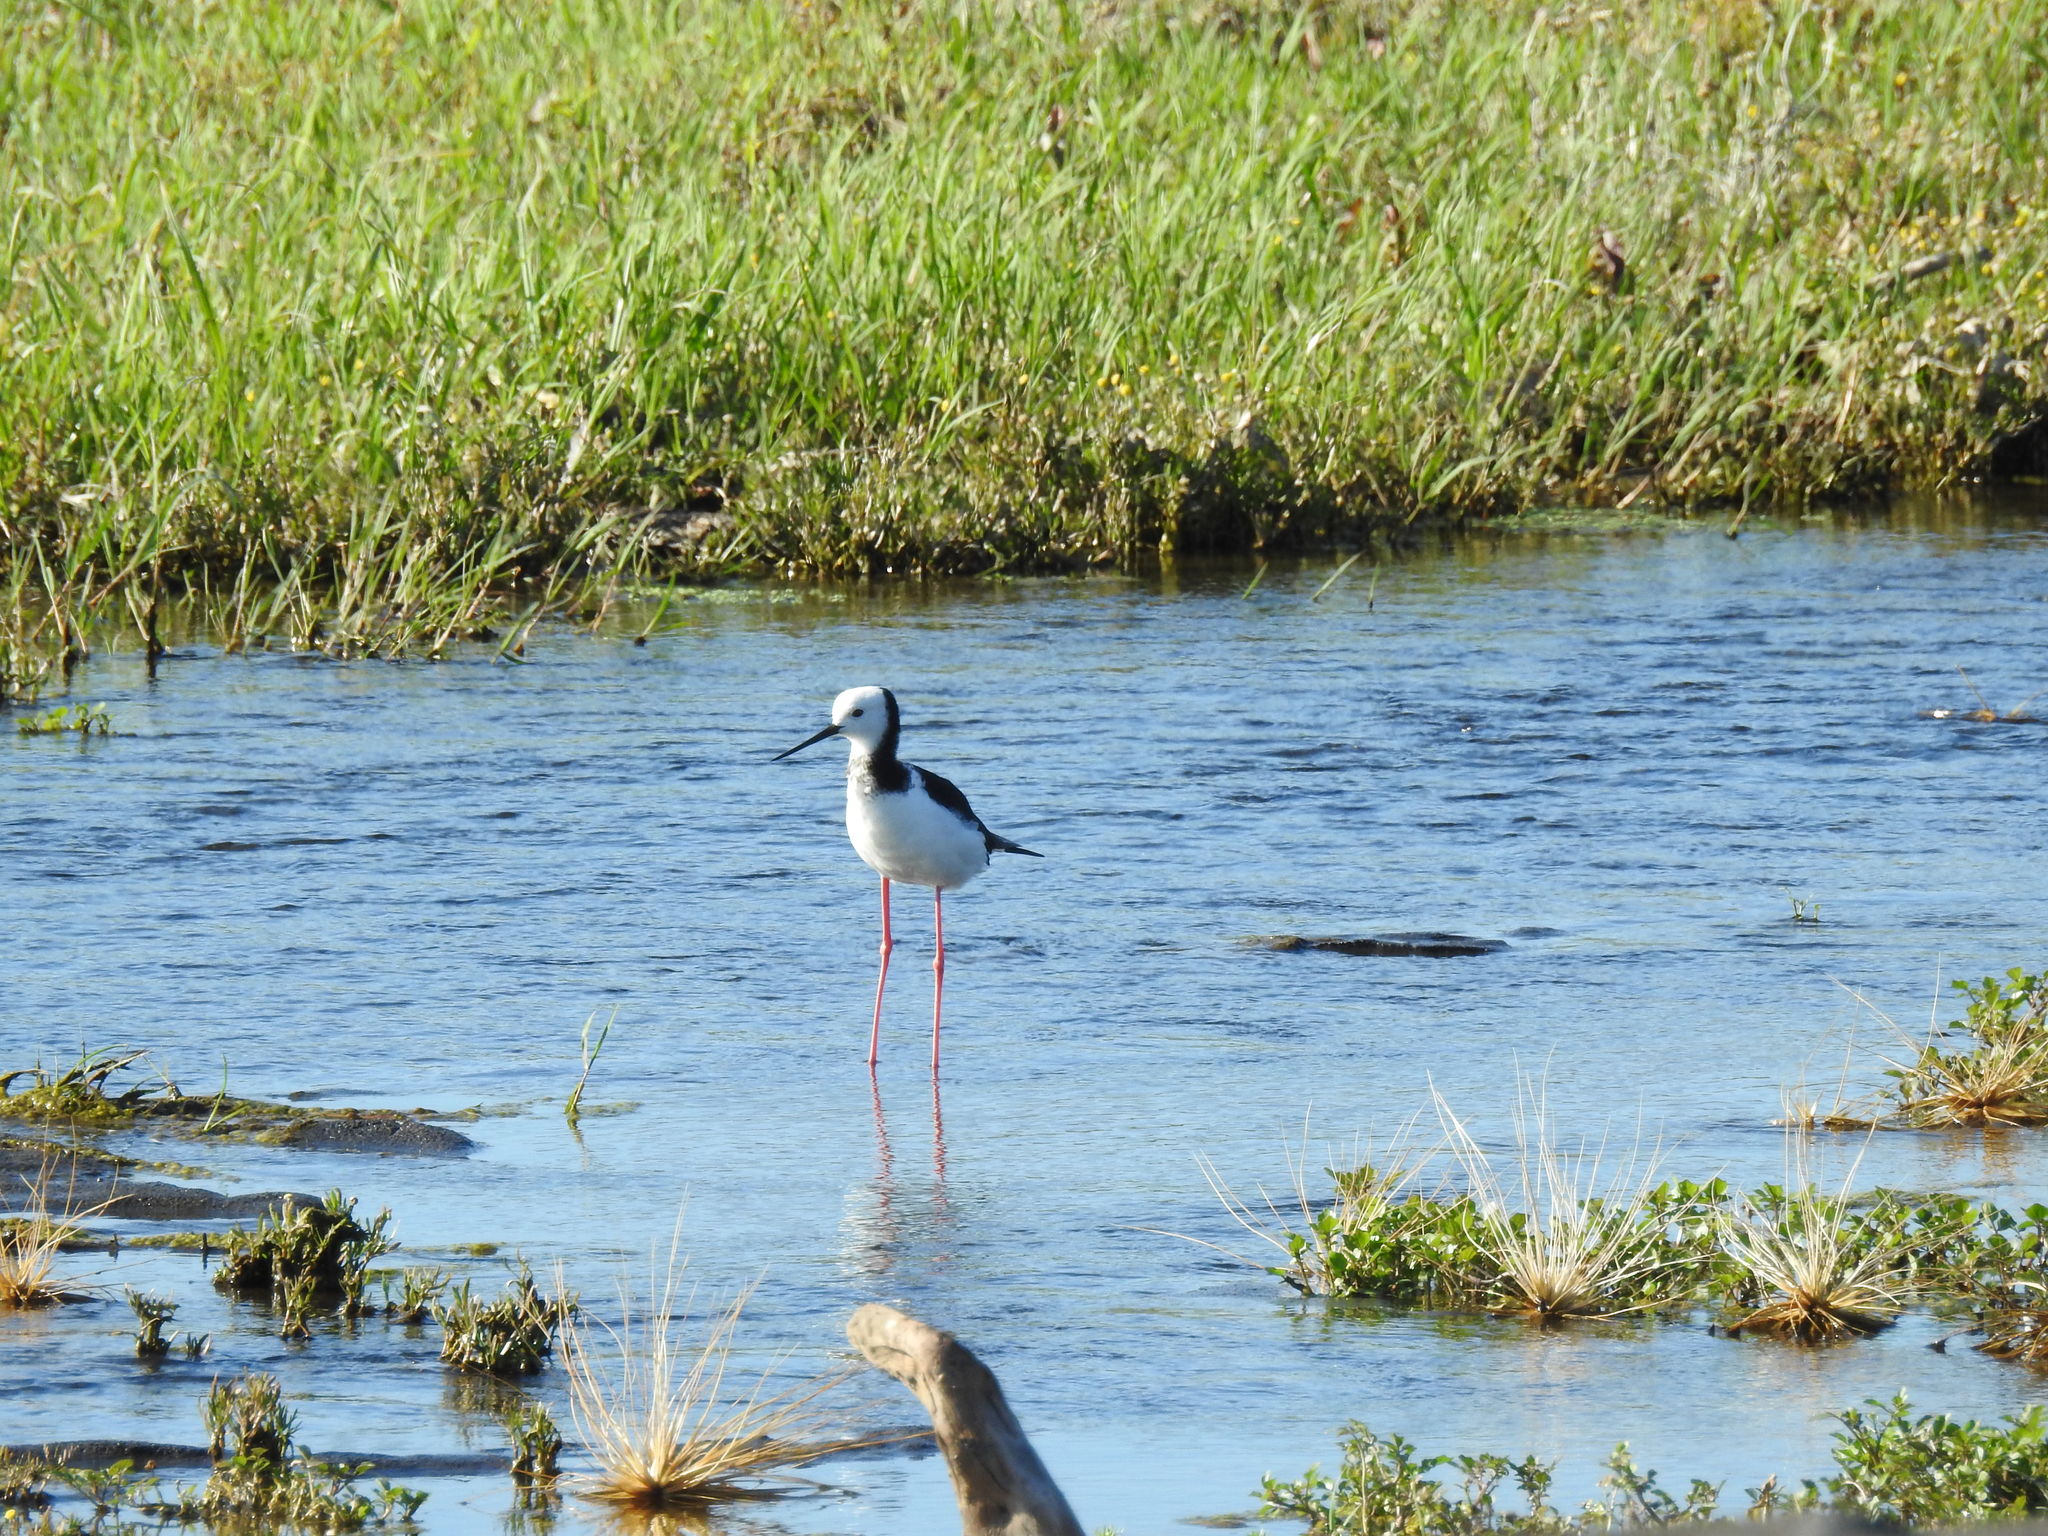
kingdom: Animalia
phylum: Chordata
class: Aves
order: Charadriiformes
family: Recurvirostridae
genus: Himantopus
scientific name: Himantopus leucocephalus
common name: White-headed stilt
